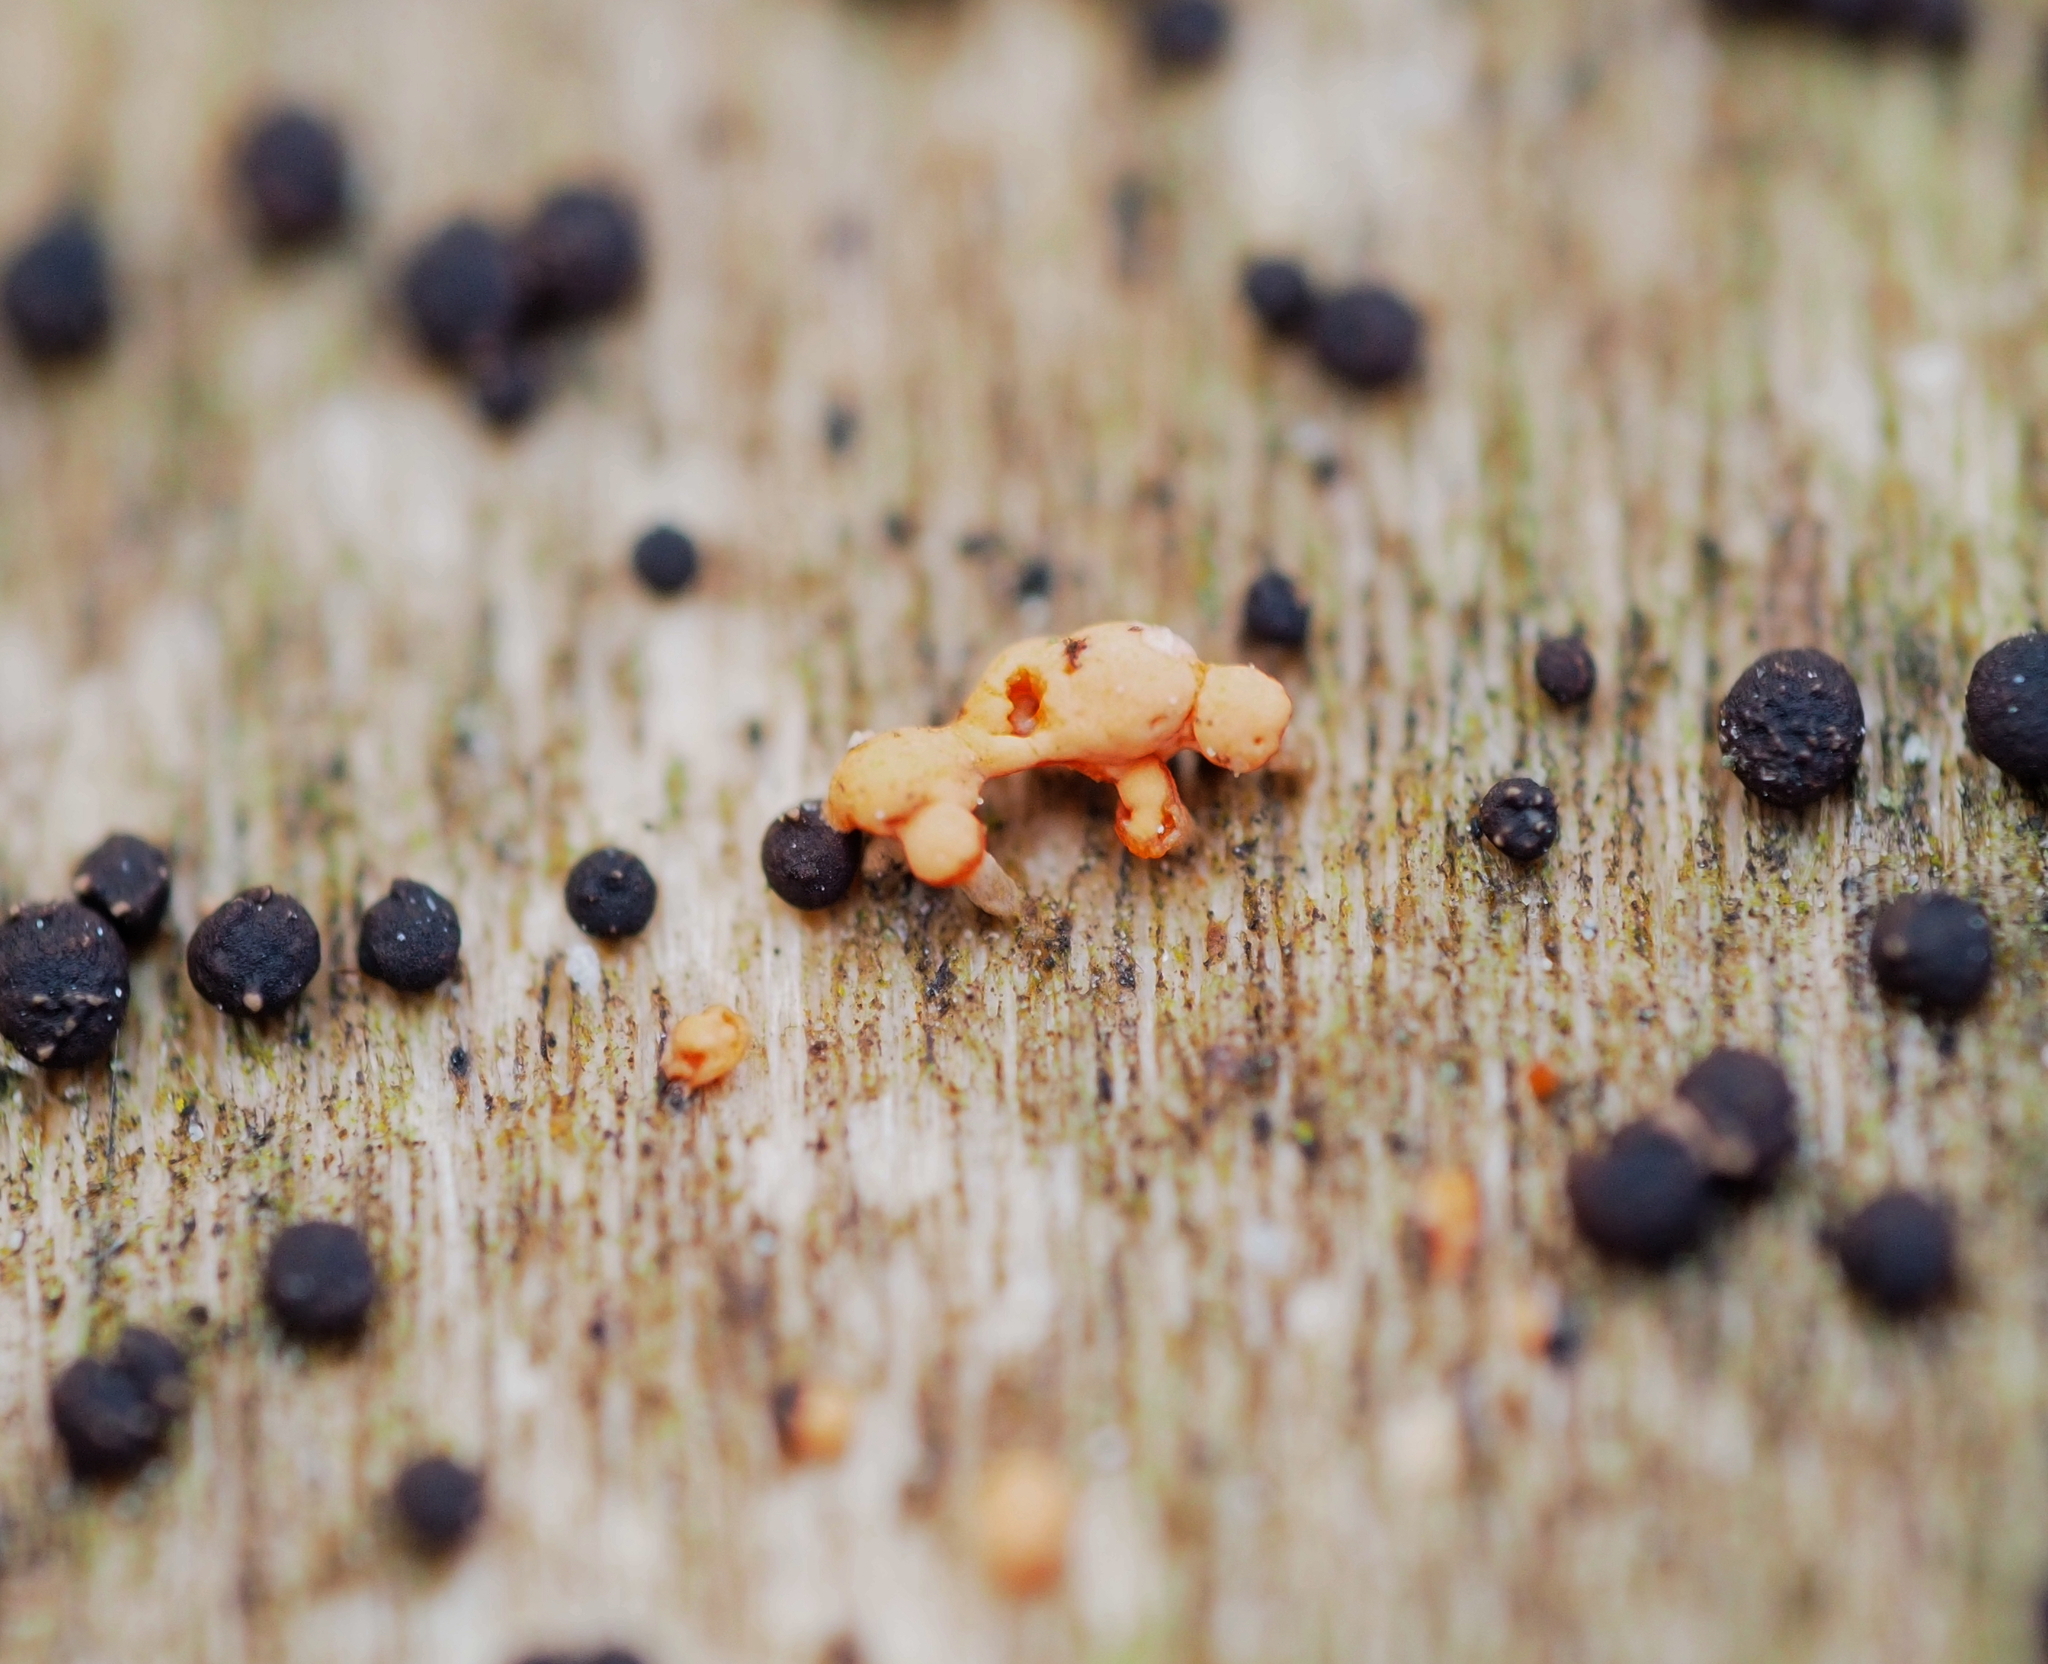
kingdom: Fungi
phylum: Ascomycota
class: Sordariomycetes
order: Hypocreales
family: Nectriaceae
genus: Nectria
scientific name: Nectria nigrescens
